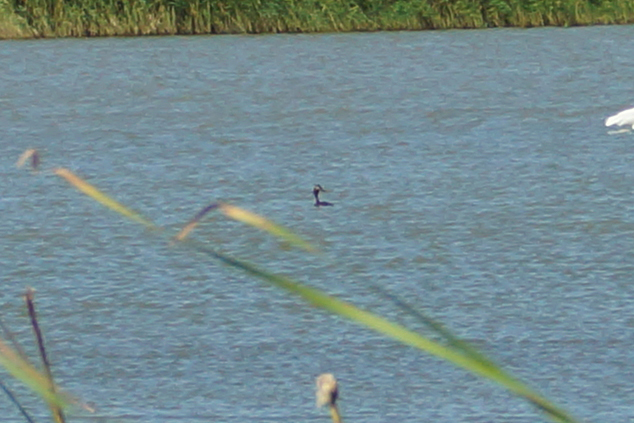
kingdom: Animalia
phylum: Chordata
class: Aves
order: Podicipediformes
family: Podicipedidae
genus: Podiceps
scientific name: Podiceps cristatus
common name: Great crested grebe
